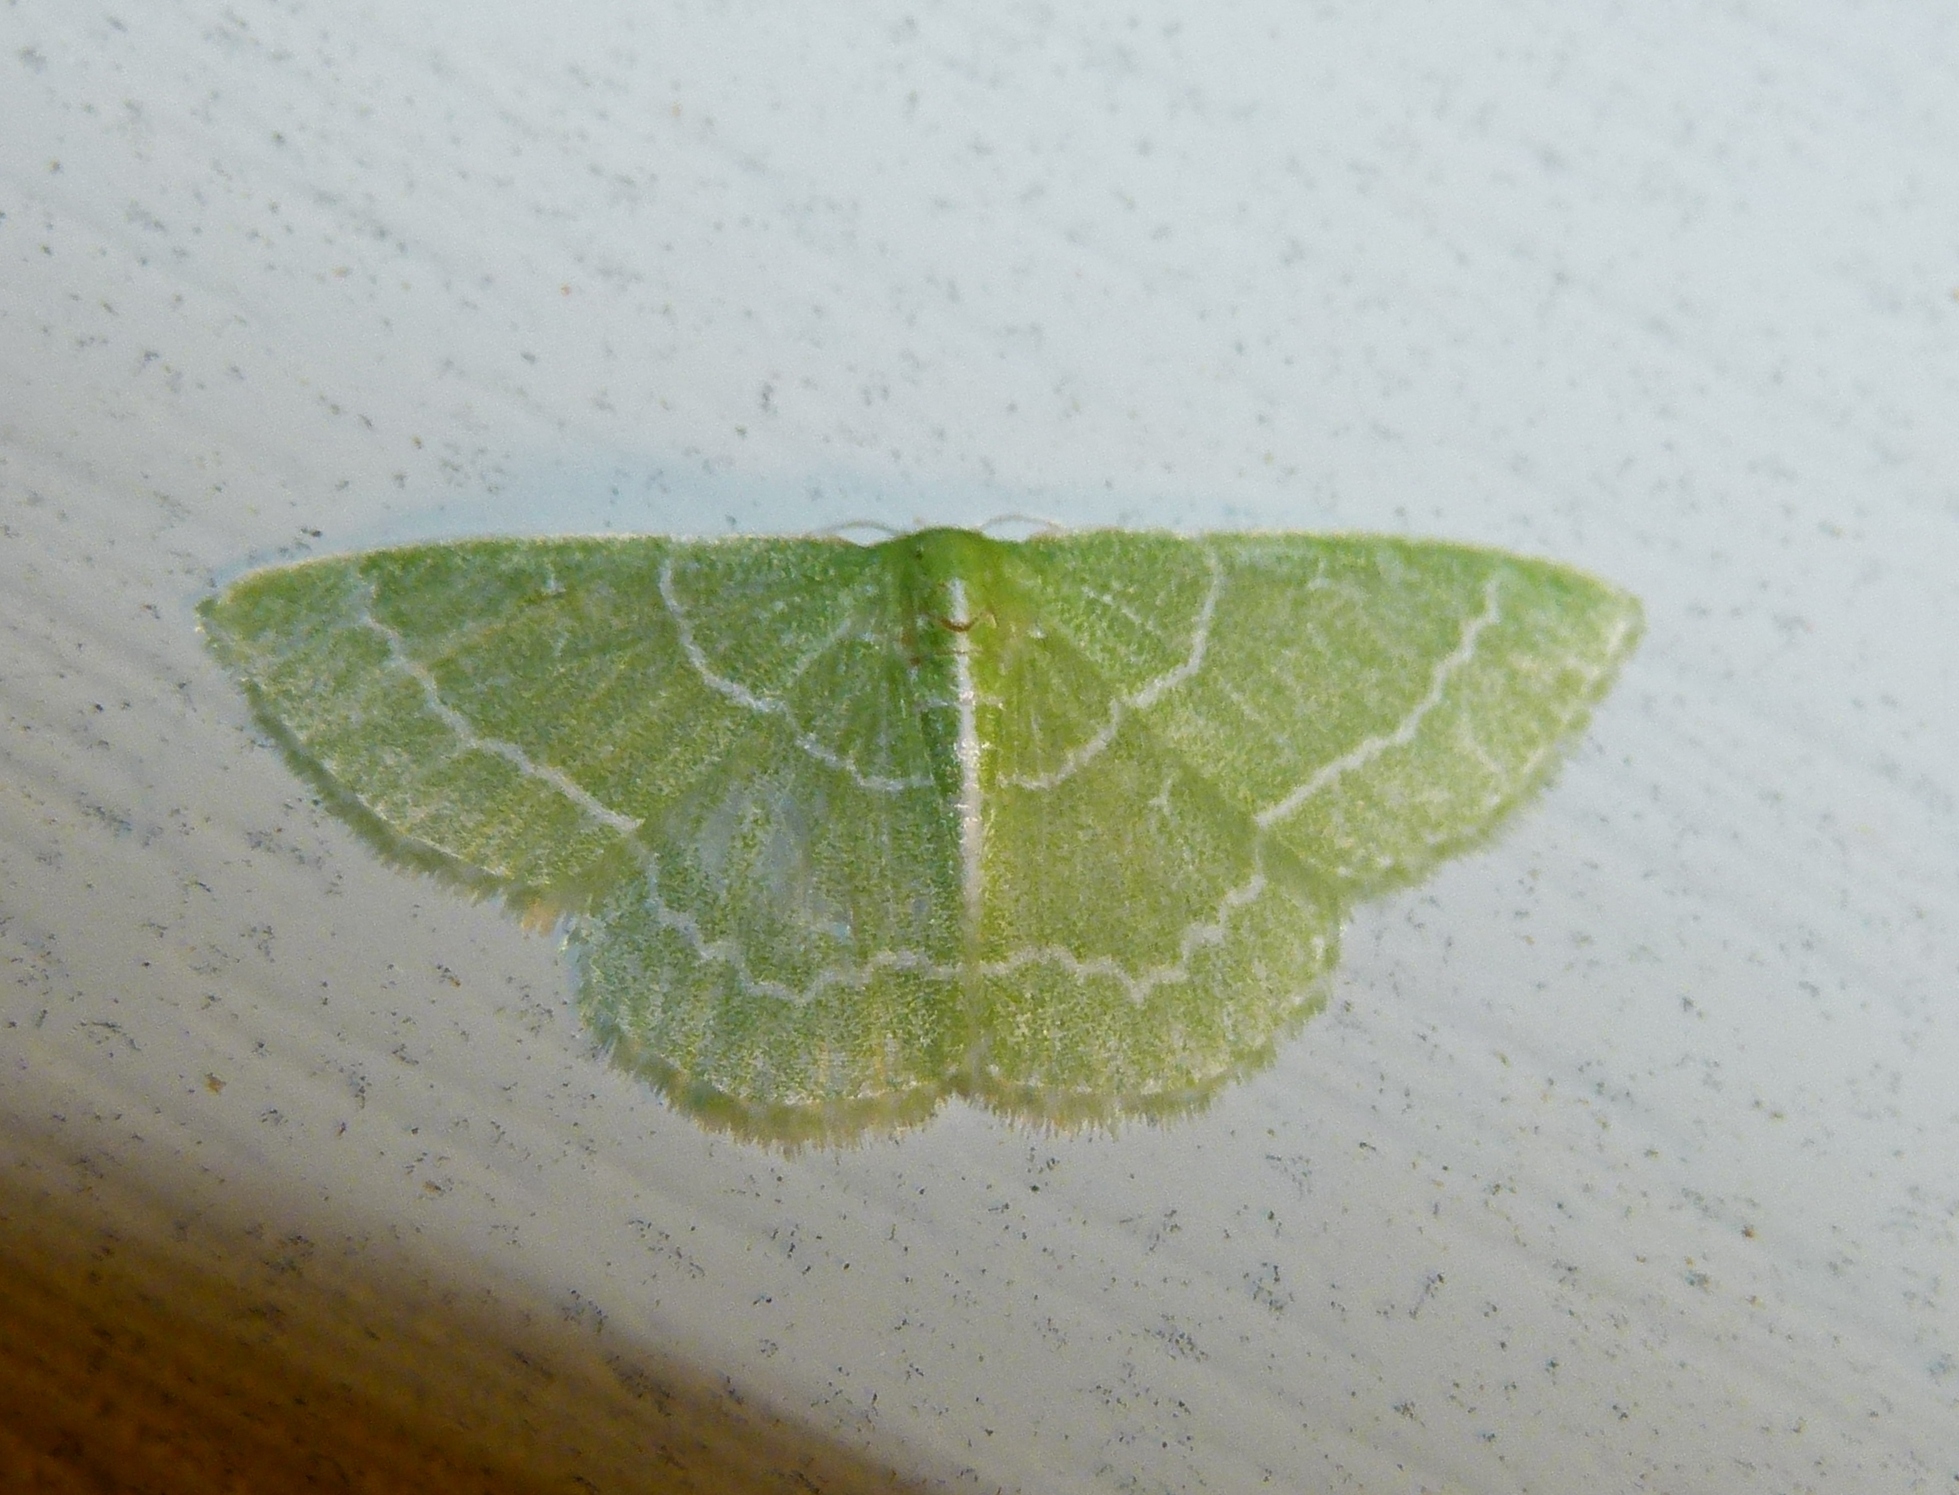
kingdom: Animalia
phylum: Arthropoda
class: Insecta
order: Lepidoptera
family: Geometridae
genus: Synchlora
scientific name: Synchlora aerata
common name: Wavy-lined emerald
